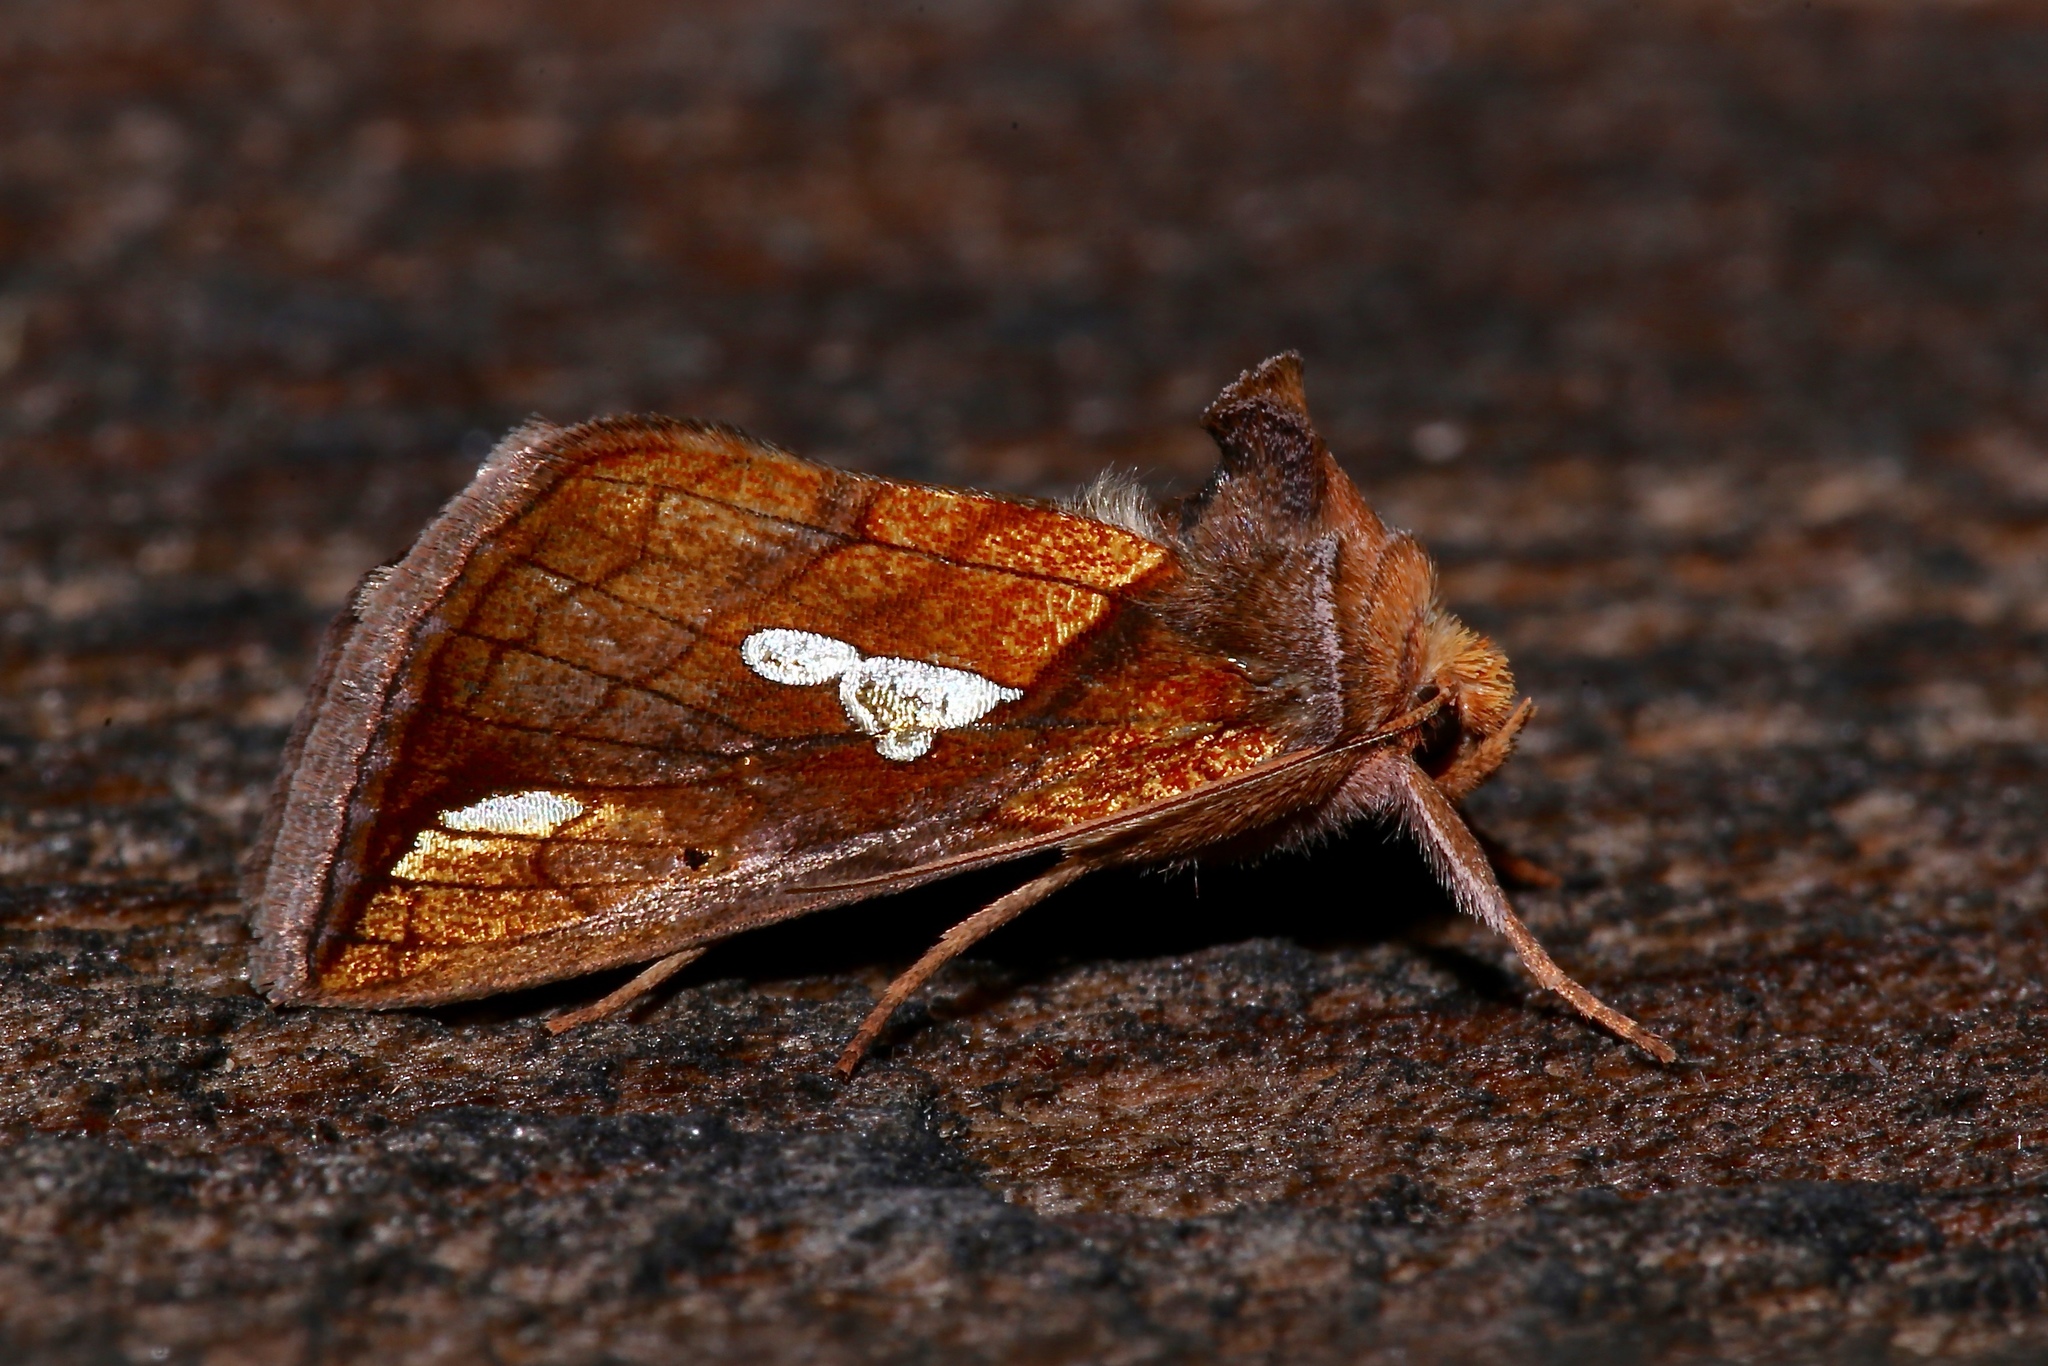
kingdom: Animalia
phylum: Arthropoda
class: Insecta
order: Lepidoptera
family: Noctuidae
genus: Plusia
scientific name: Plusia putnami
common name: Lempke's gold spot
